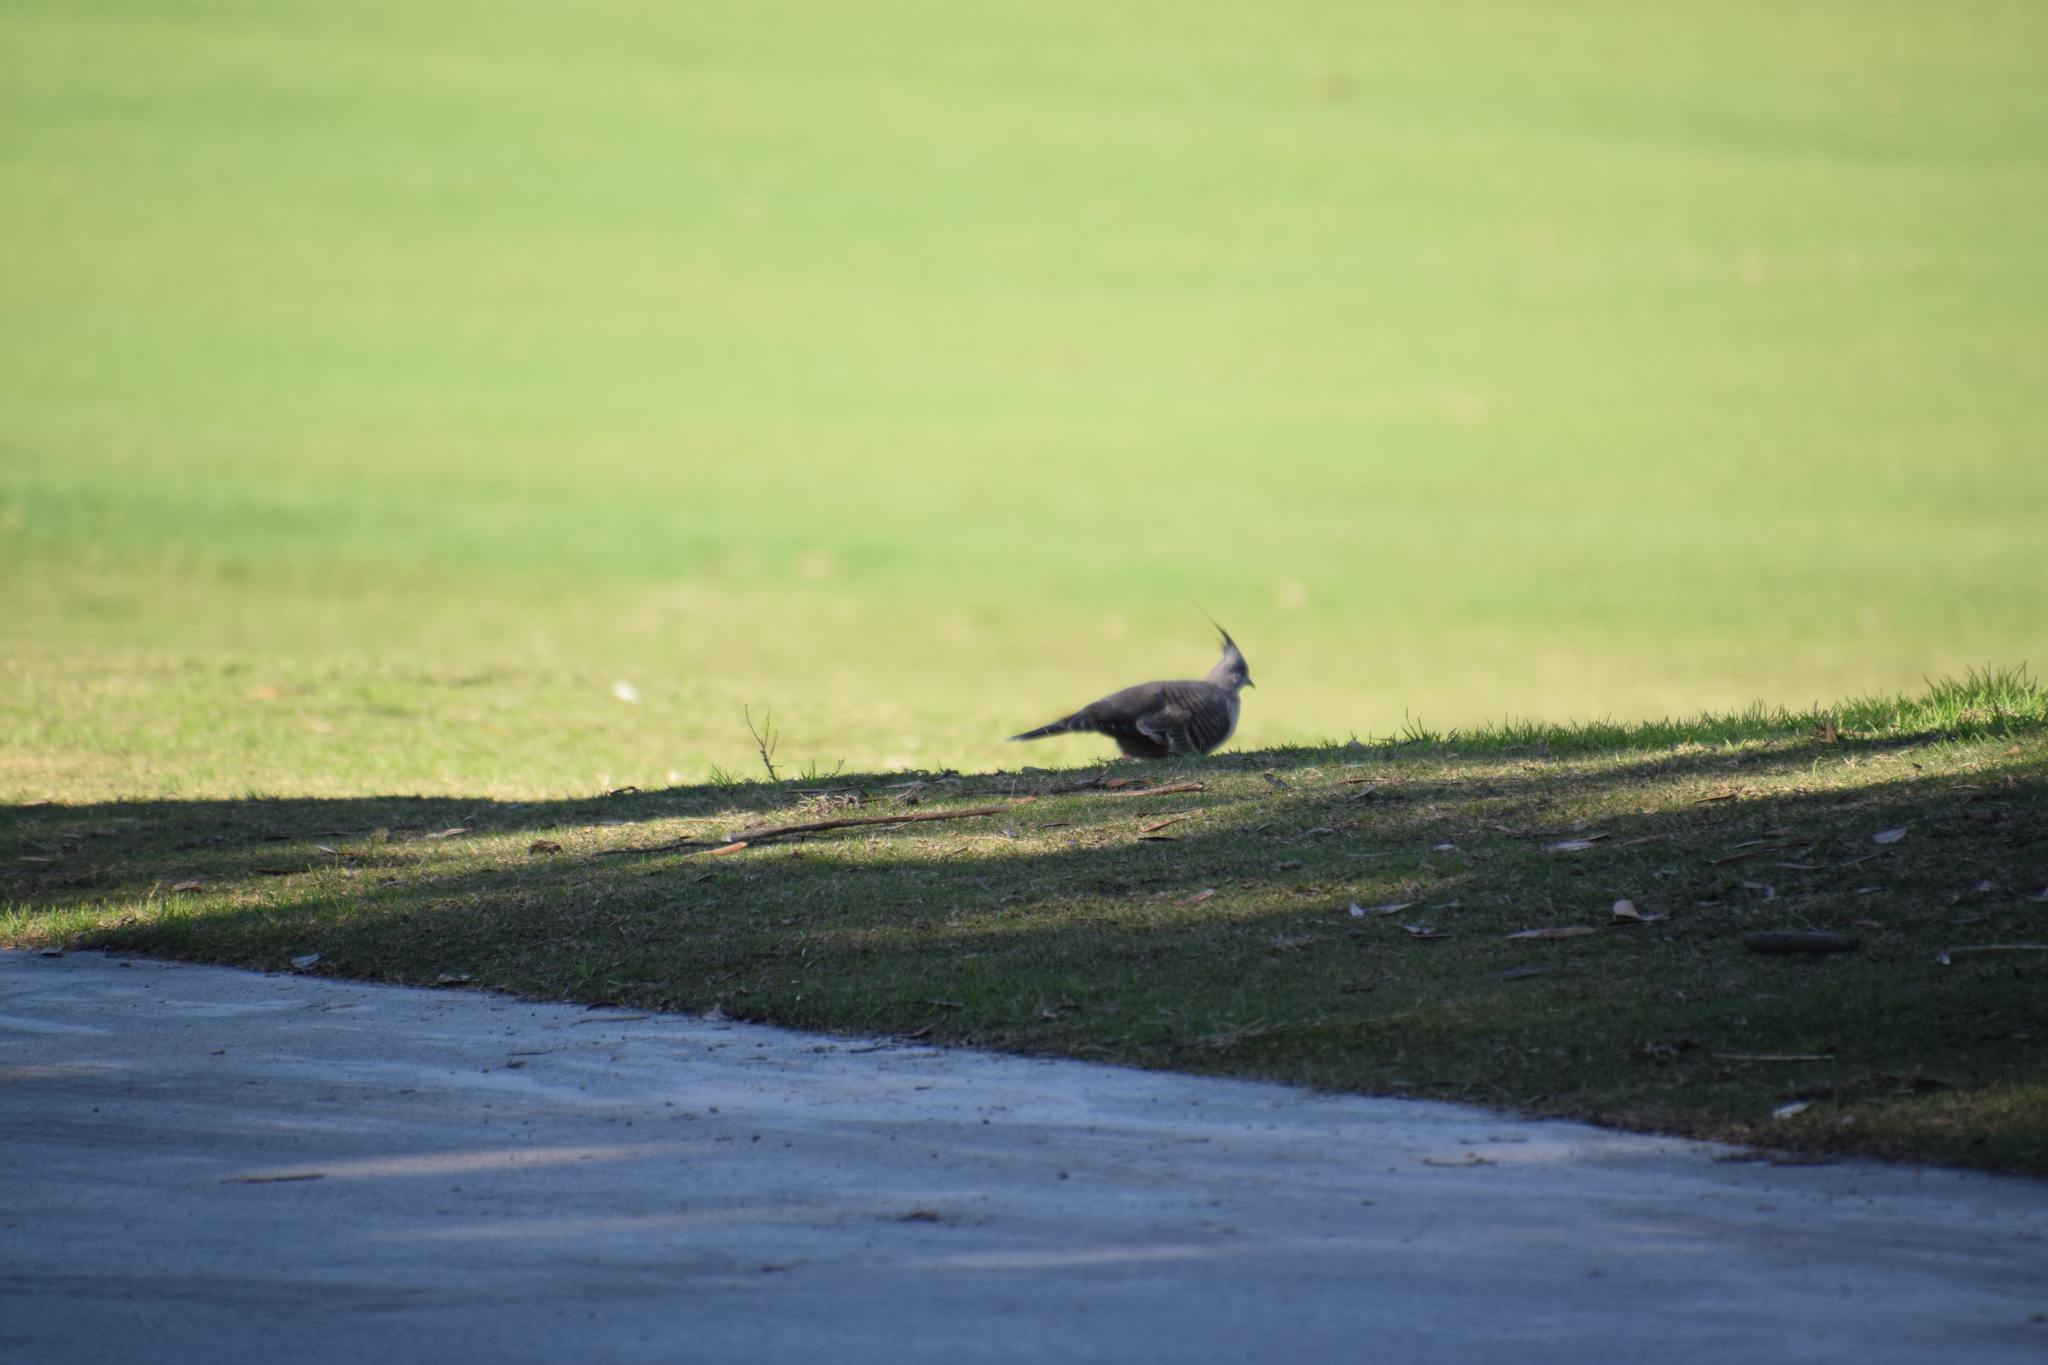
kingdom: Animalia
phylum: Chordata
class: Aves
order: Columbiformes
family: Columbidae
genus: Ocyphaps
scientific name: Ocyphaps lophotes
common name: Crested pigeon
